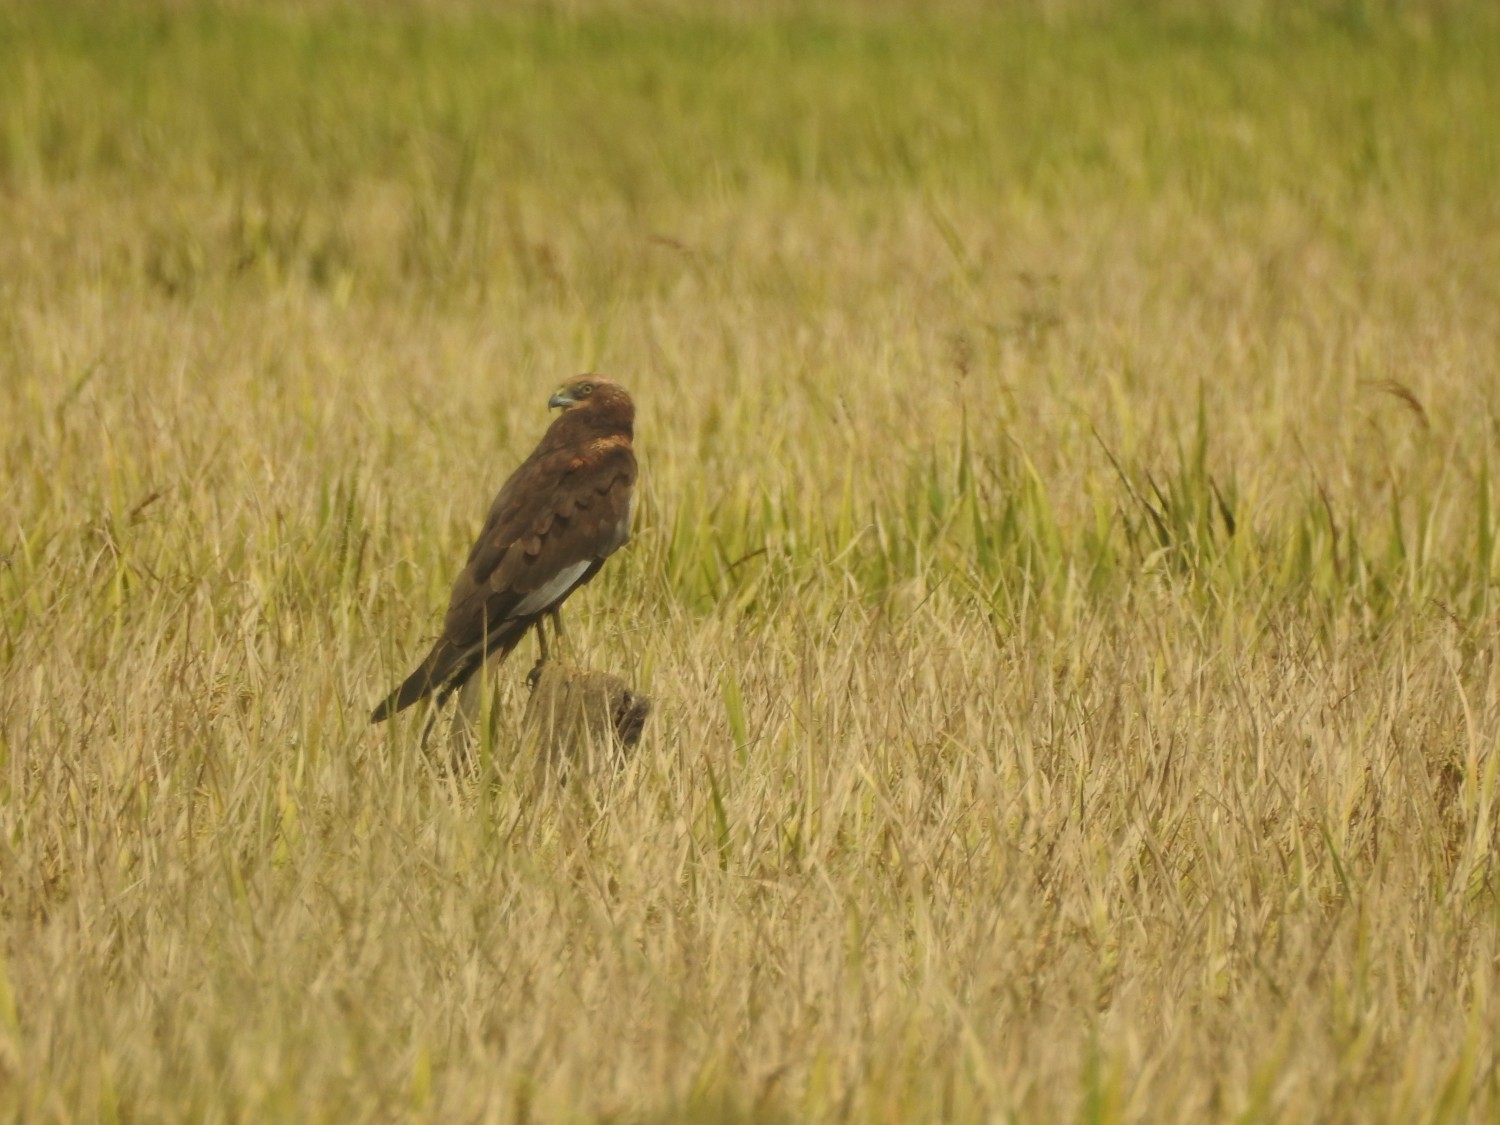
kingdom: Animalia
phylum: Chordata
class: Aves
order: Accipitriformes
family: Accipitridae
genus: Circus
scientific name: Circus aeruginosus
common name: Western marsh harrier
